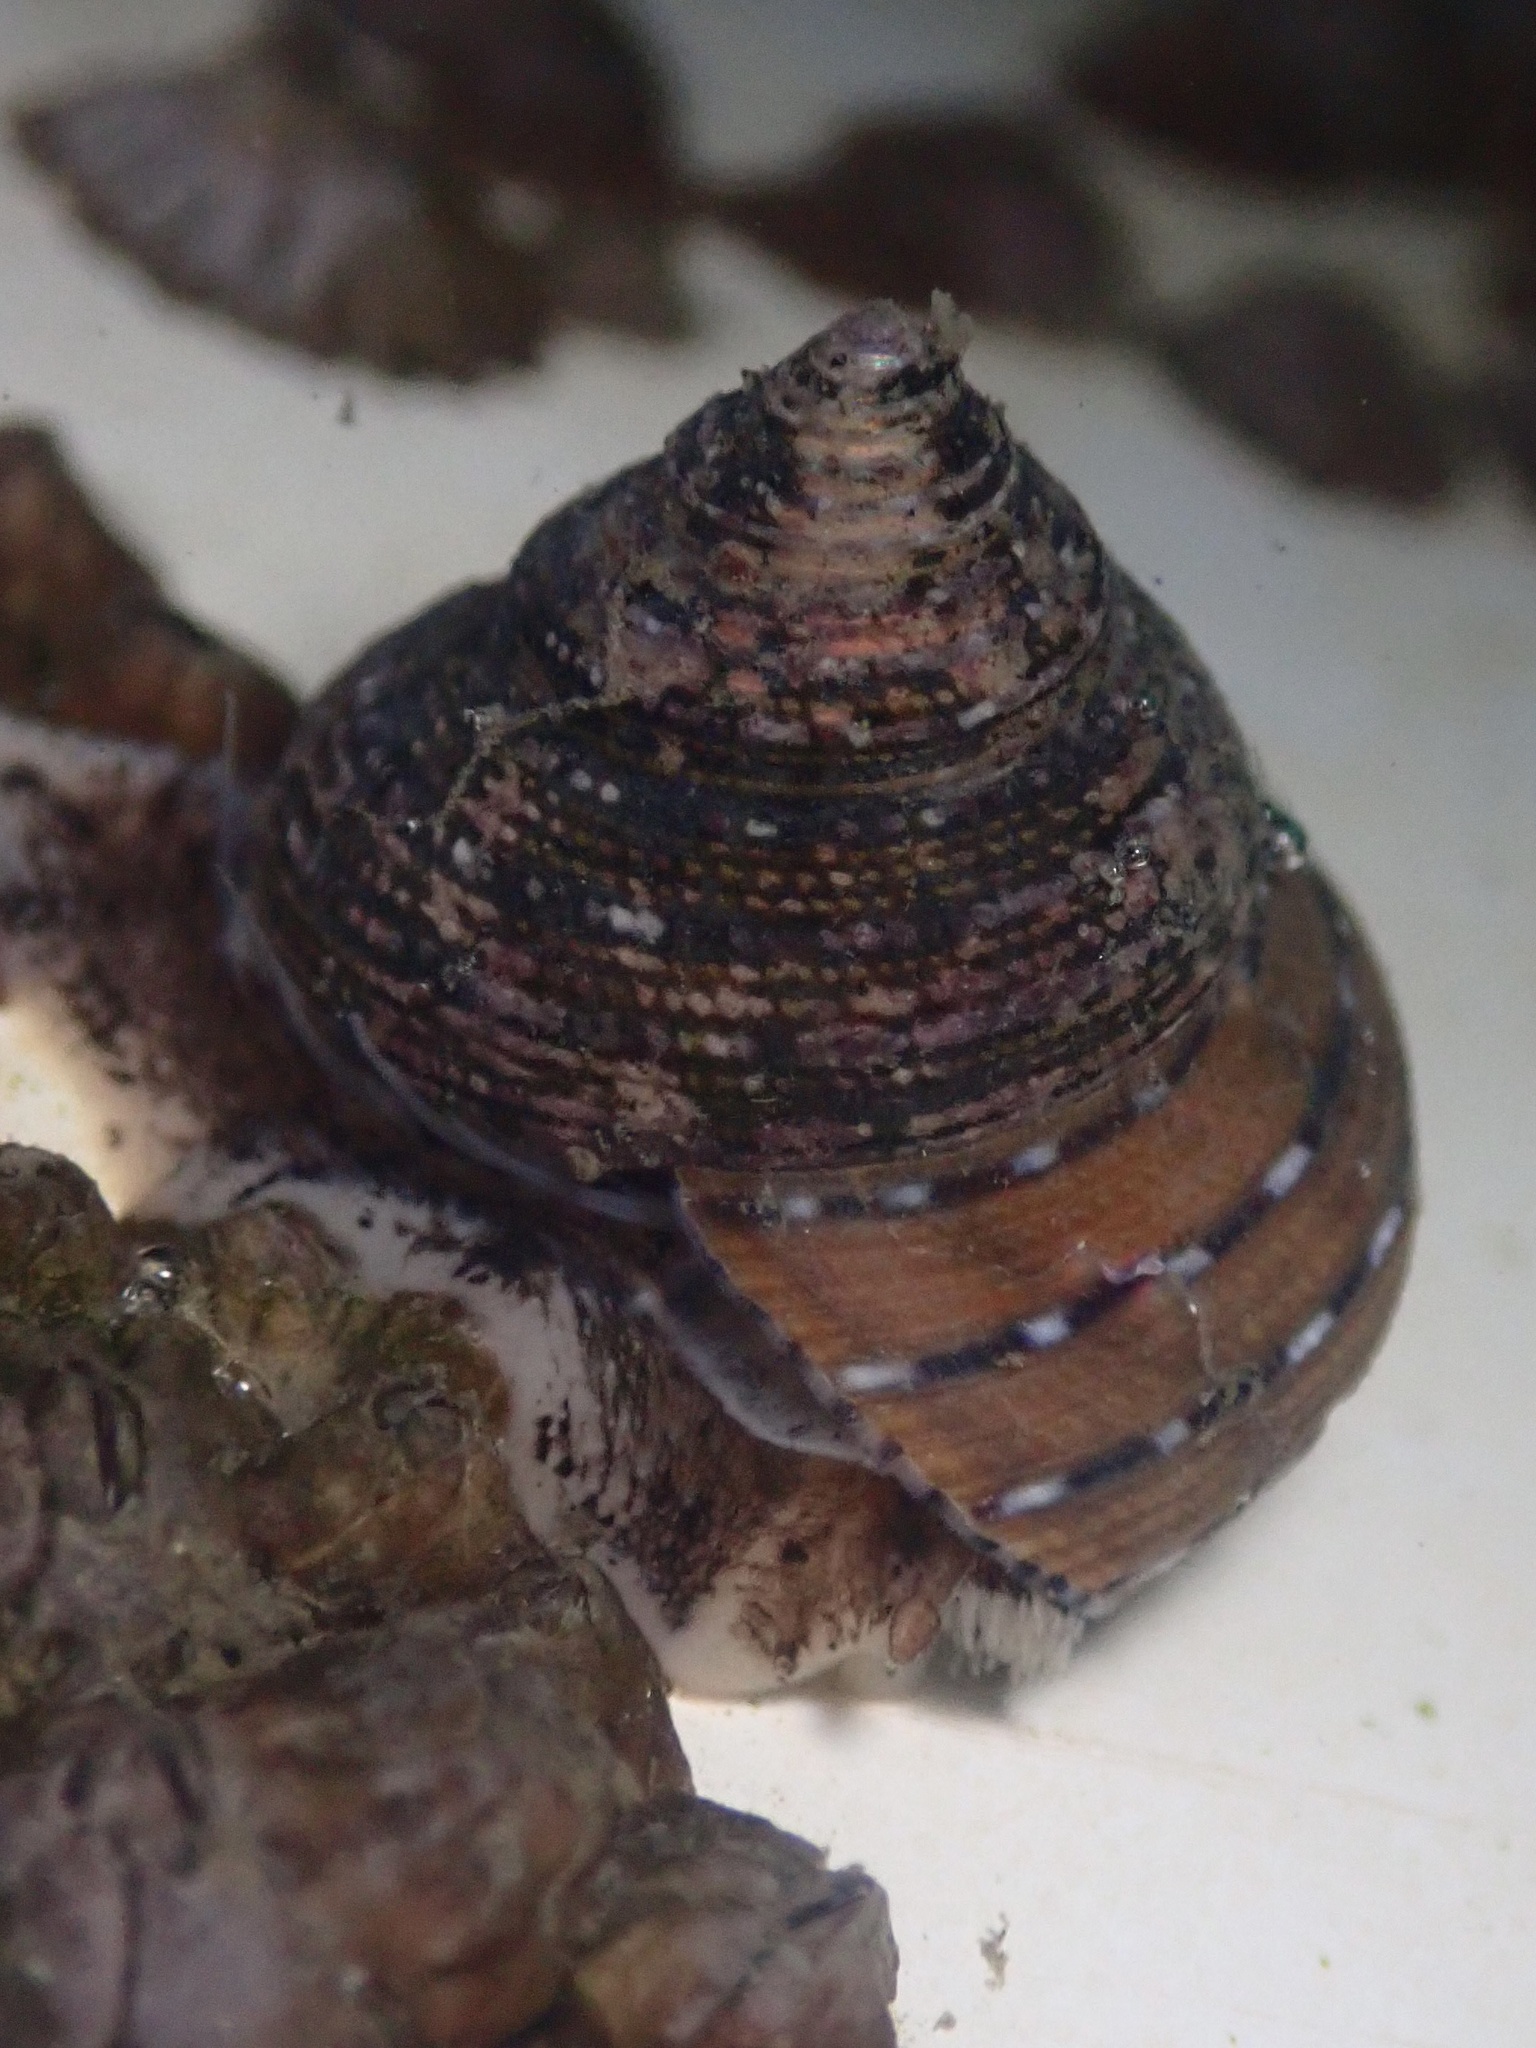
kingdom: Animalia
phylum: Mollusca
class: Gastropoda
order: Trochida
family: Calliostomatidae
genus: Calliostoma
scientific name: Calliostoma tricolor
